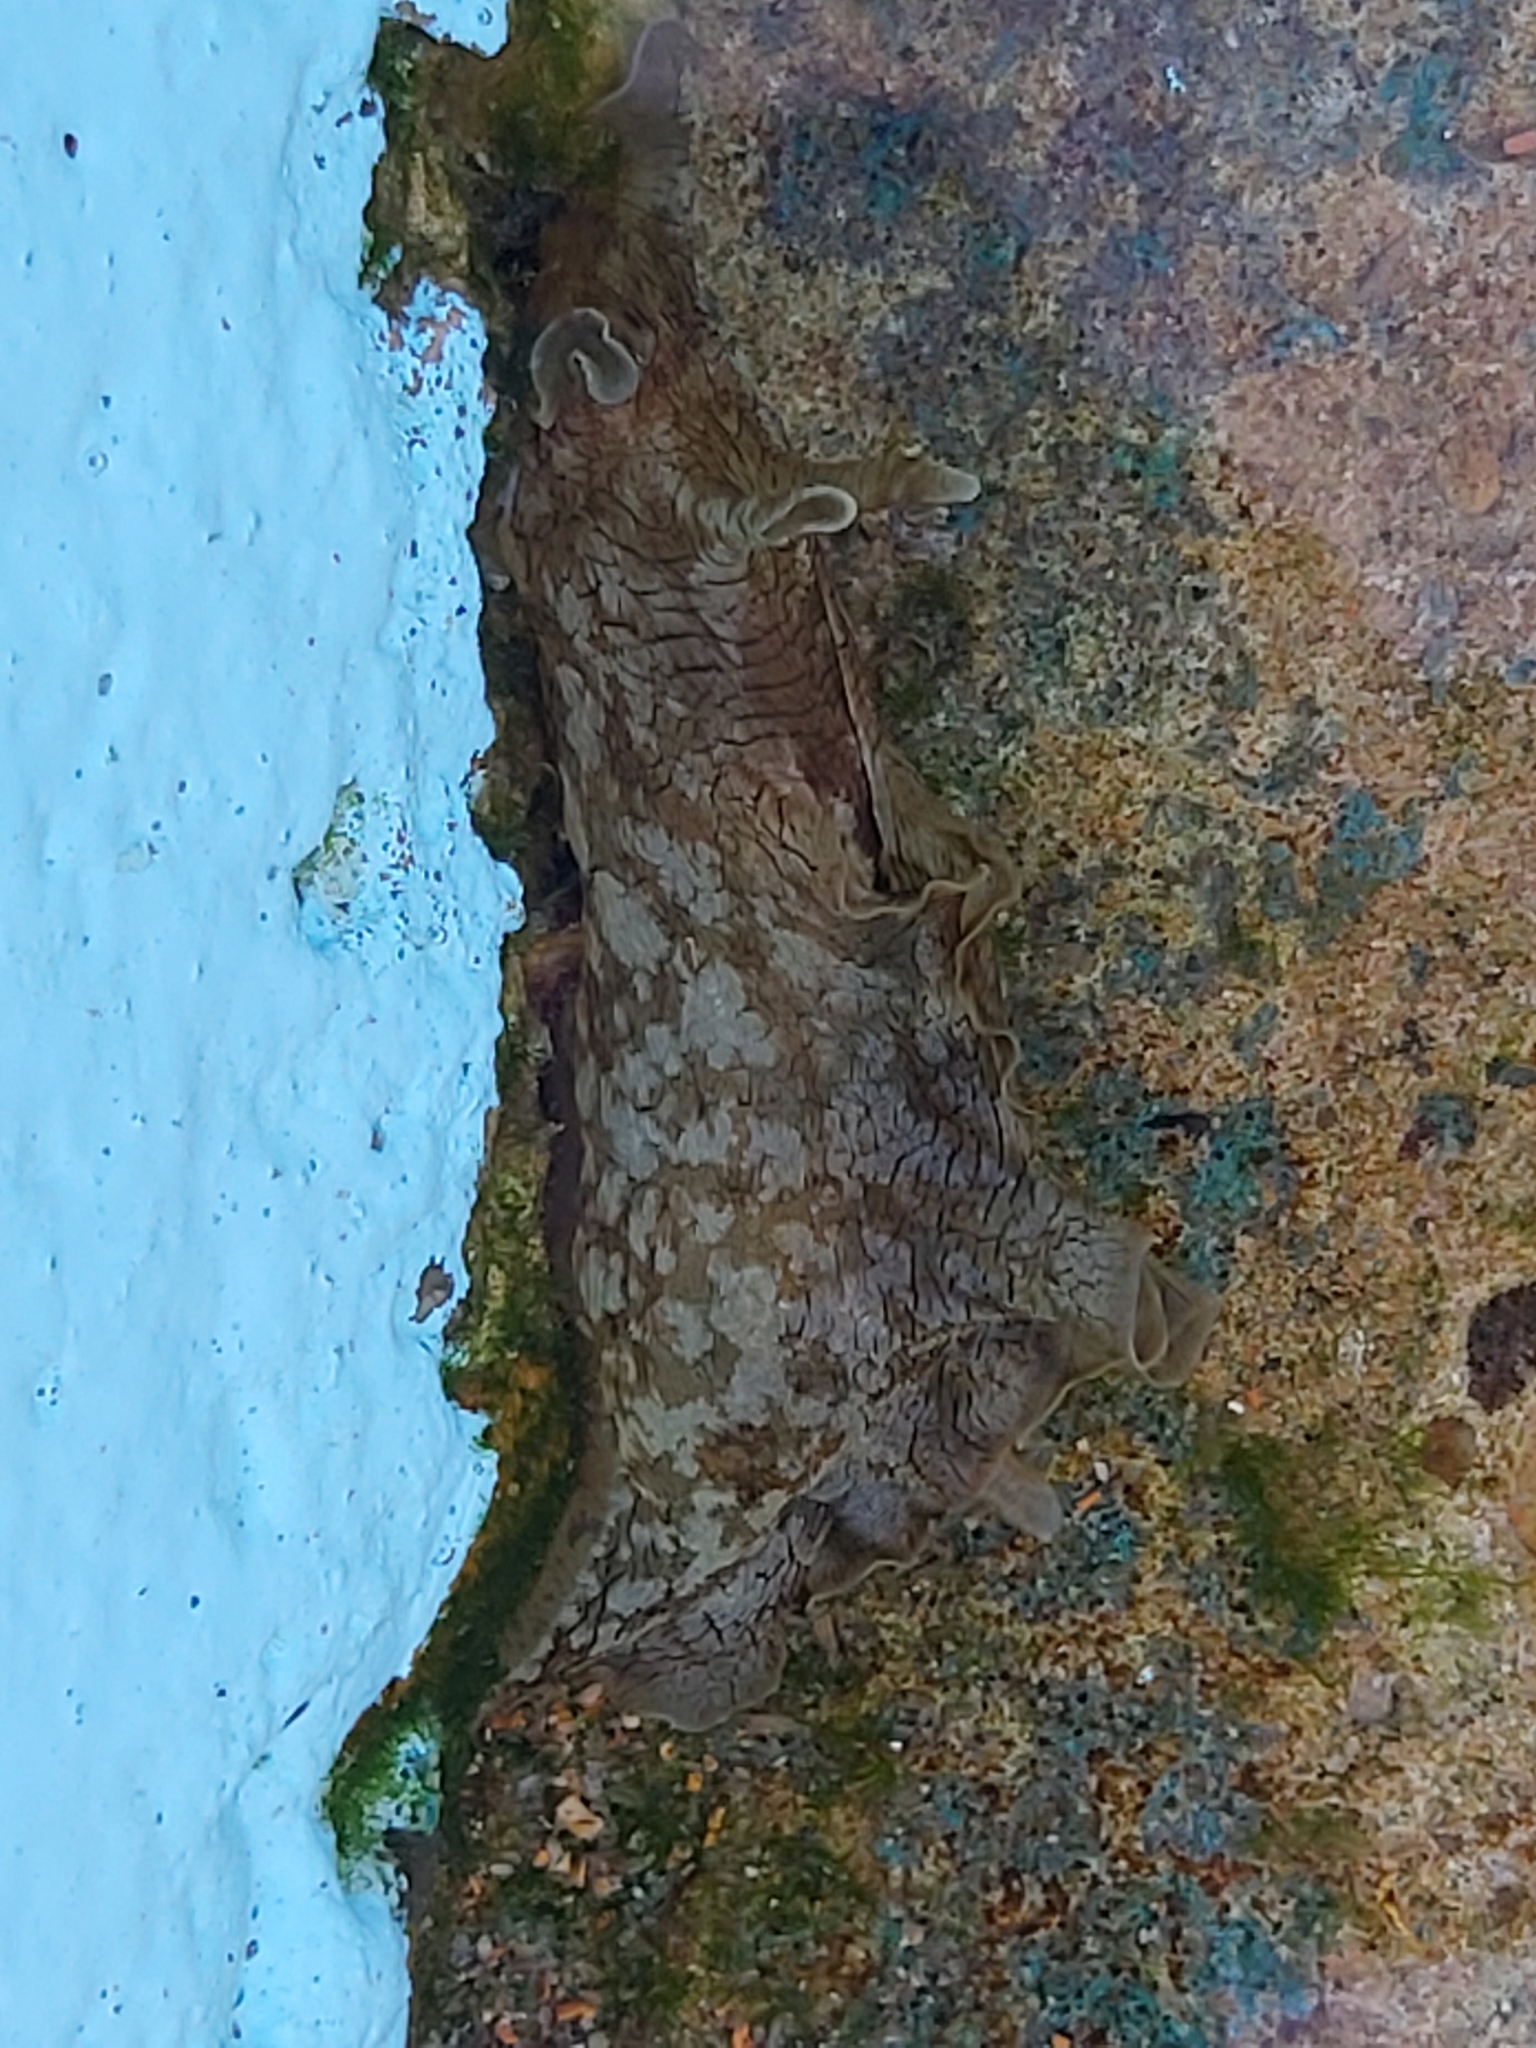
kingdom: Animalia
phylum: Mollusca
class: Gastropoda
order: Aplysiida
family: Aplysiidae
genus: Aplysia
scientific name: Aplysia sydneyensis
